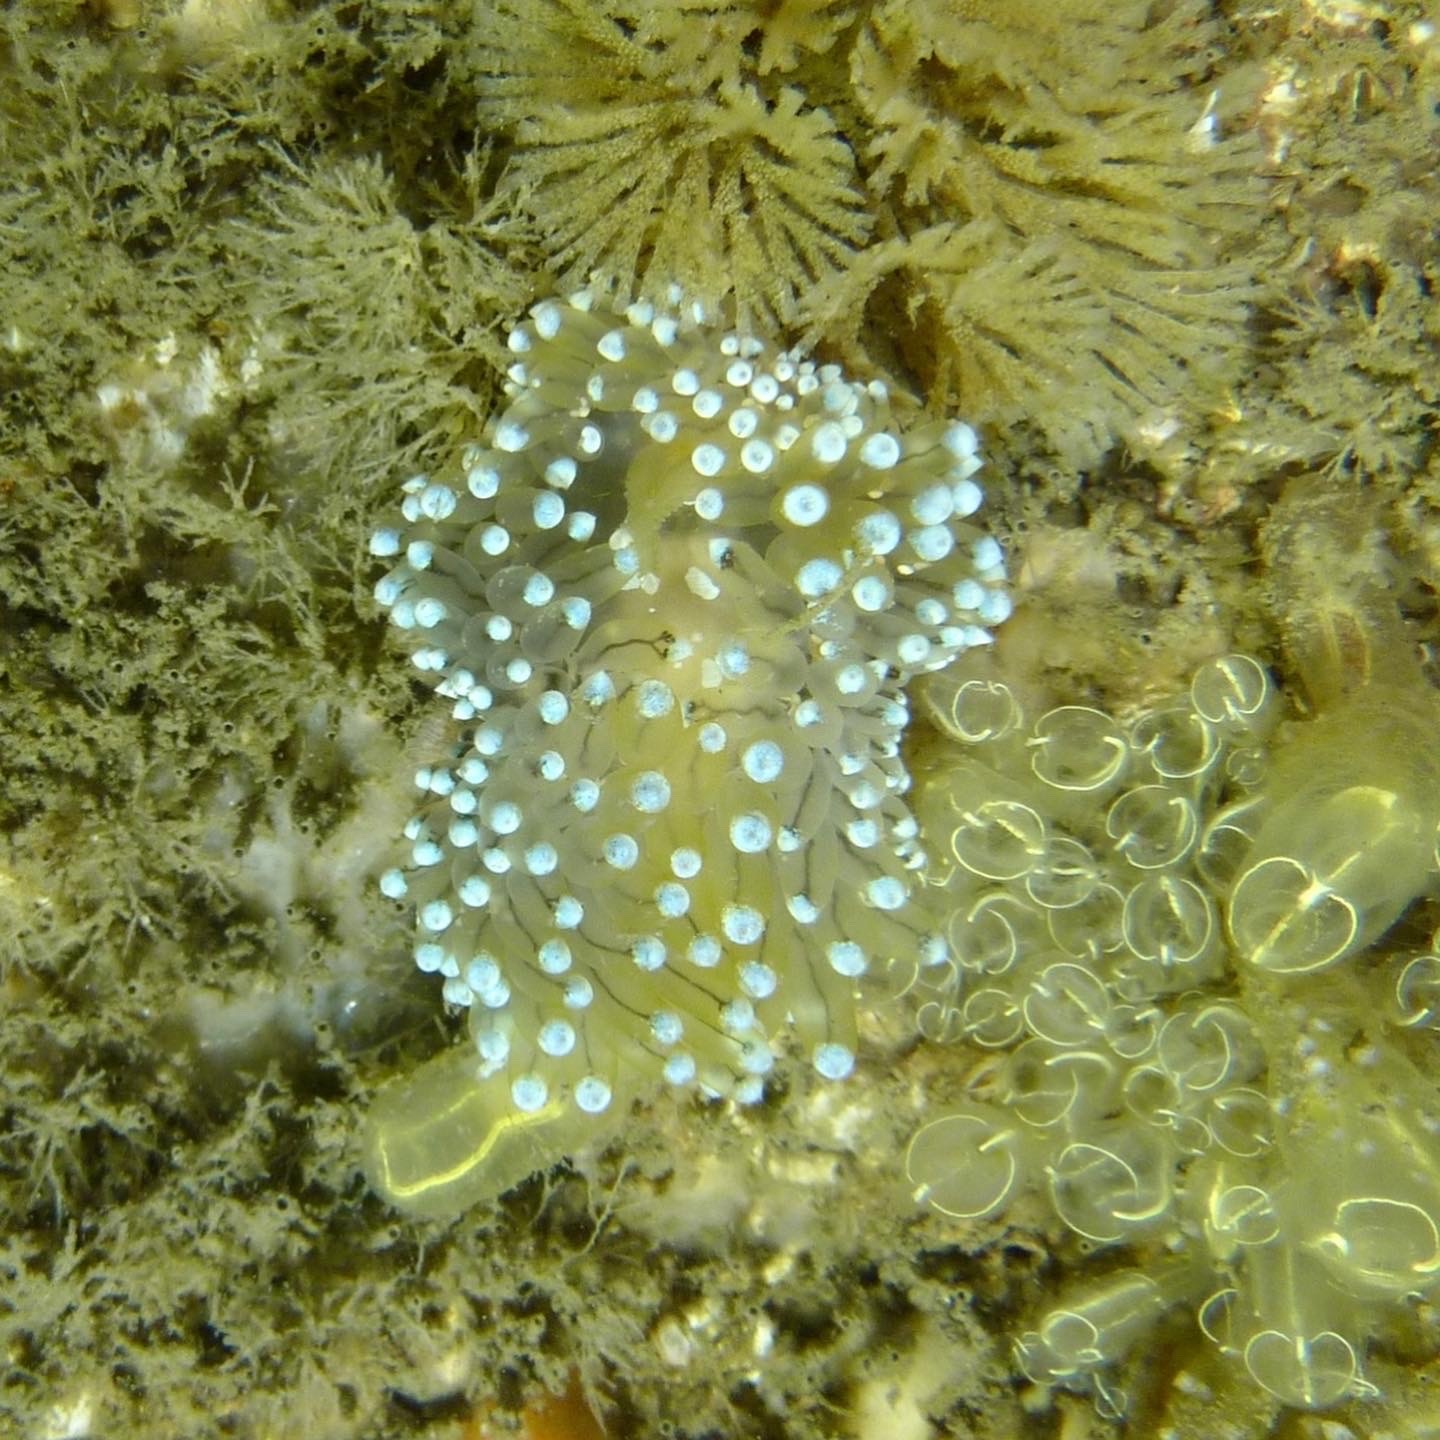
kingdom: Animalia
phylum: Mollusca
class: Gastropoda
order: Nudibranchia
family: Janolidae
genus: Antiopella
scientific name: Antiopella cristata
